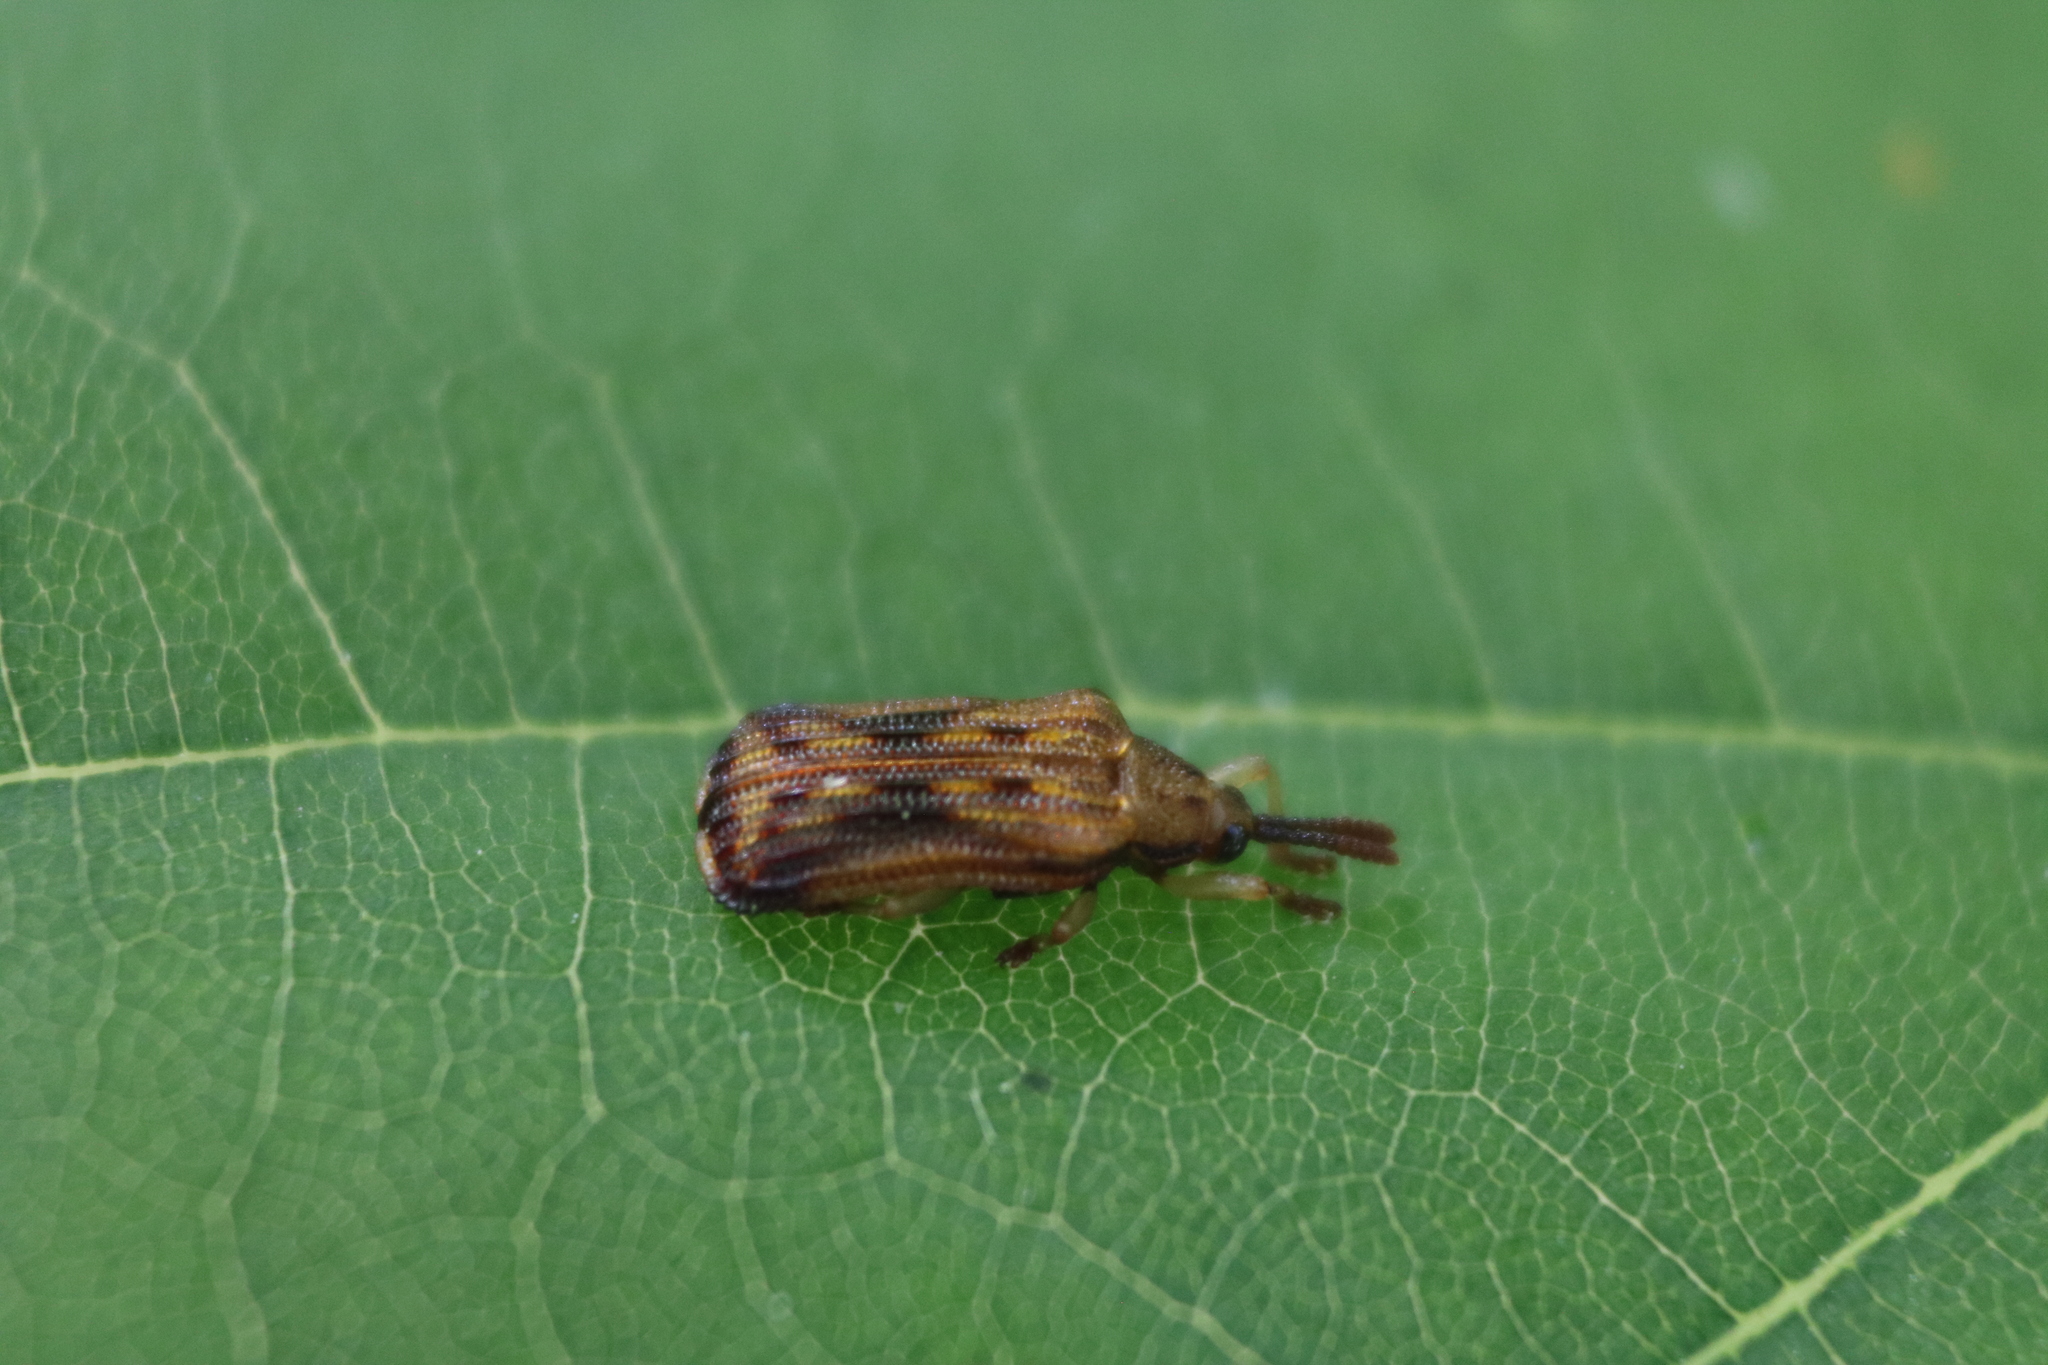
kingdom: Animalia
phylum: Arthropoda
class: Insecta
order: Coleoptera
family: Chrysomelidae
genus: Baliosus
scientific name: Baliosus nervosus
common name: Basswood leaf miner
